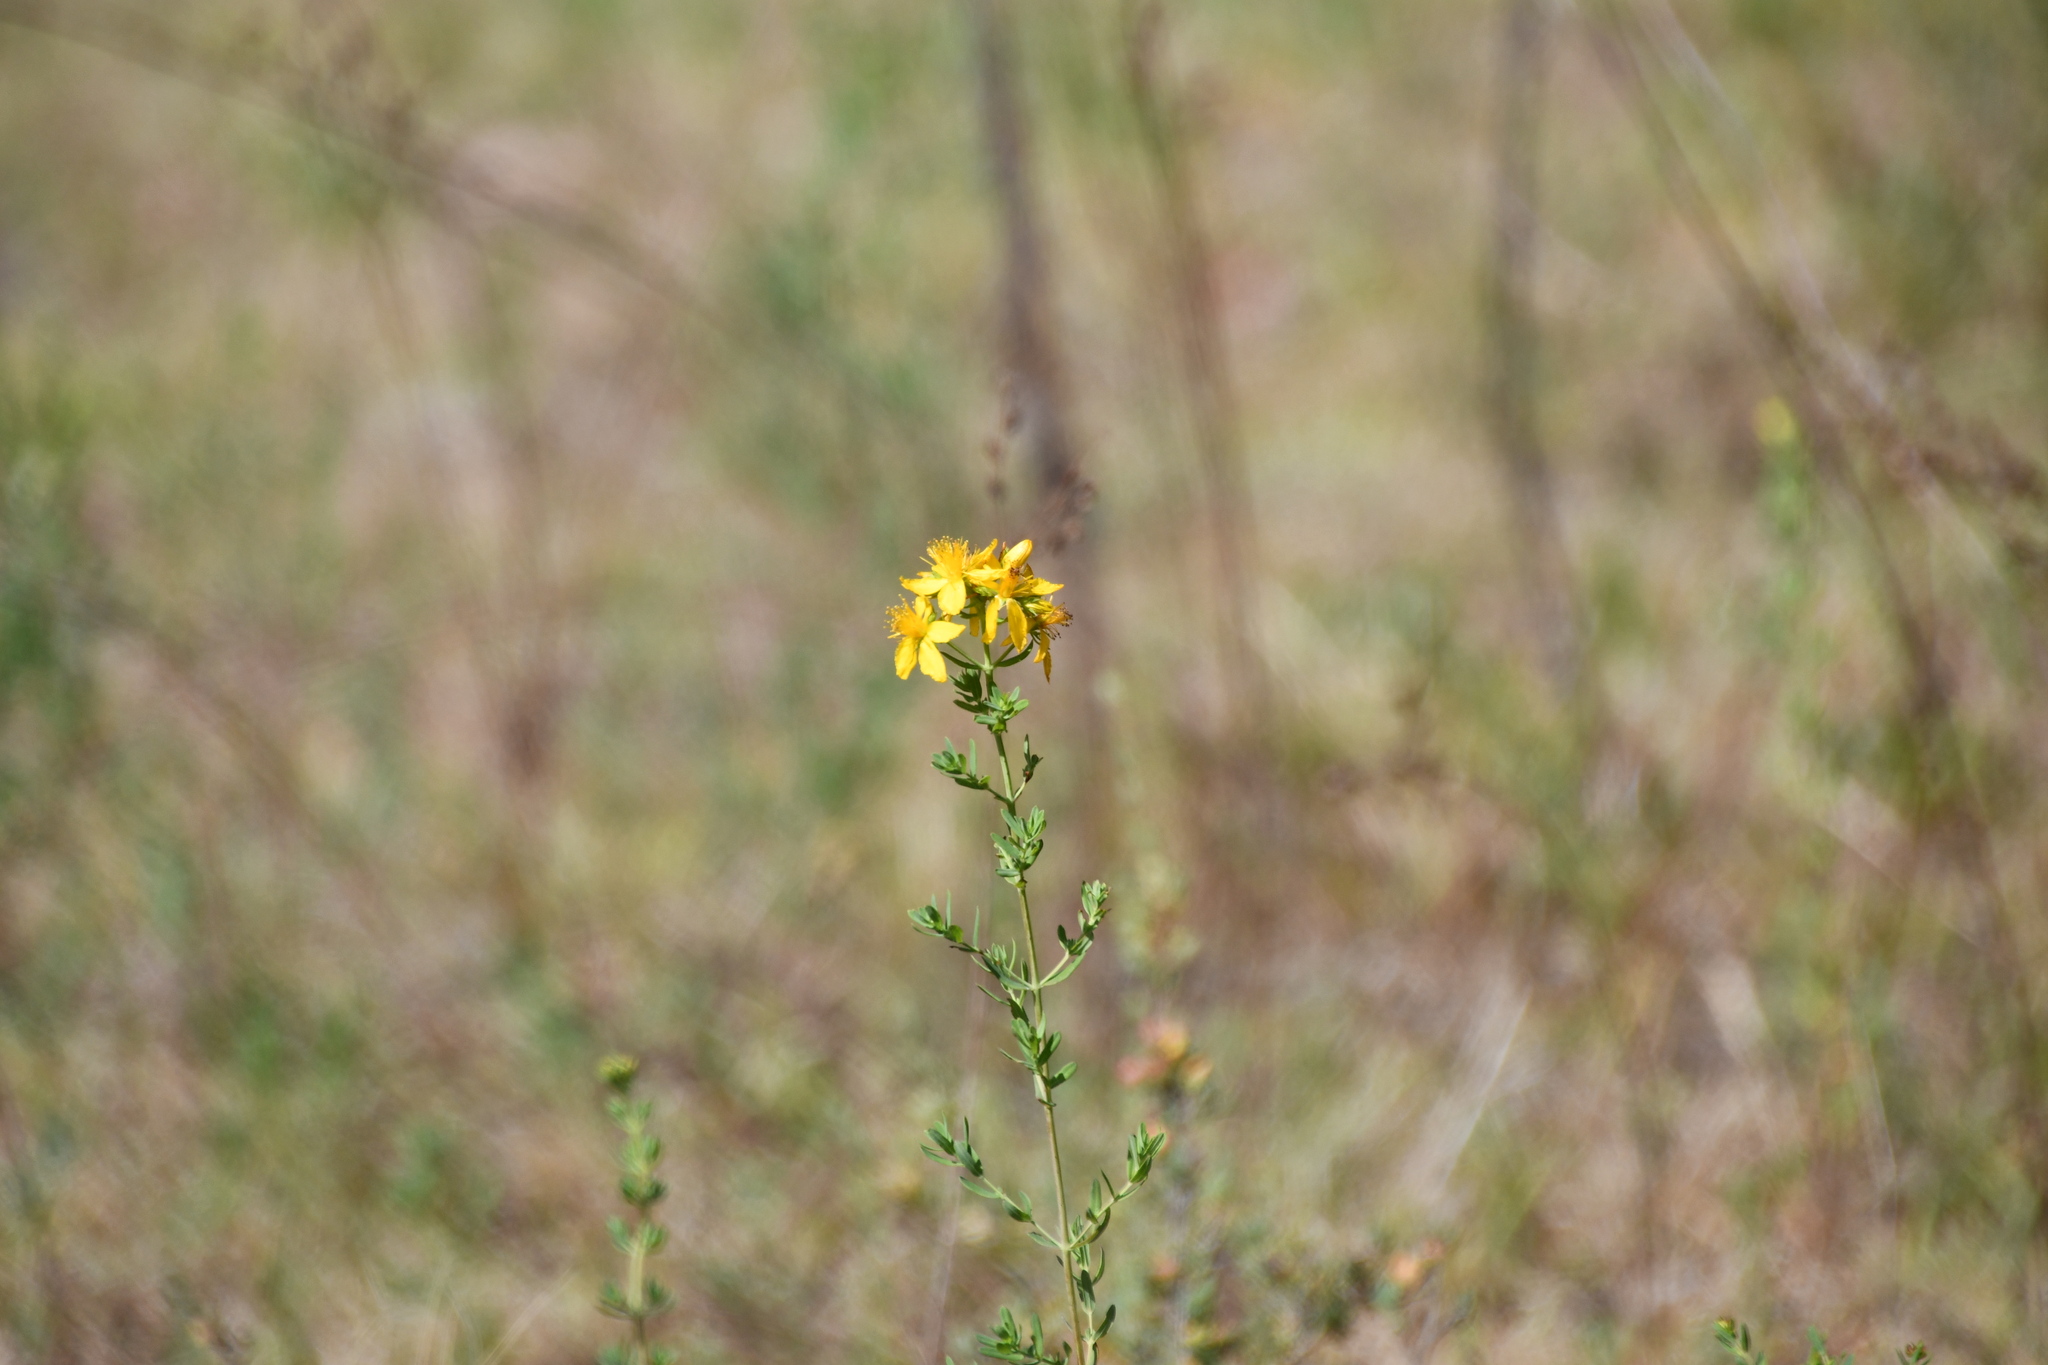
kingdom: Plantae
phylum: Tracheophyta
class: Magnoliopsida
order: Malpighiales
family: Hypericaceae
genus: Hypericum
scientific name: Hypericum perforatum
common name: Common st. johnswort
